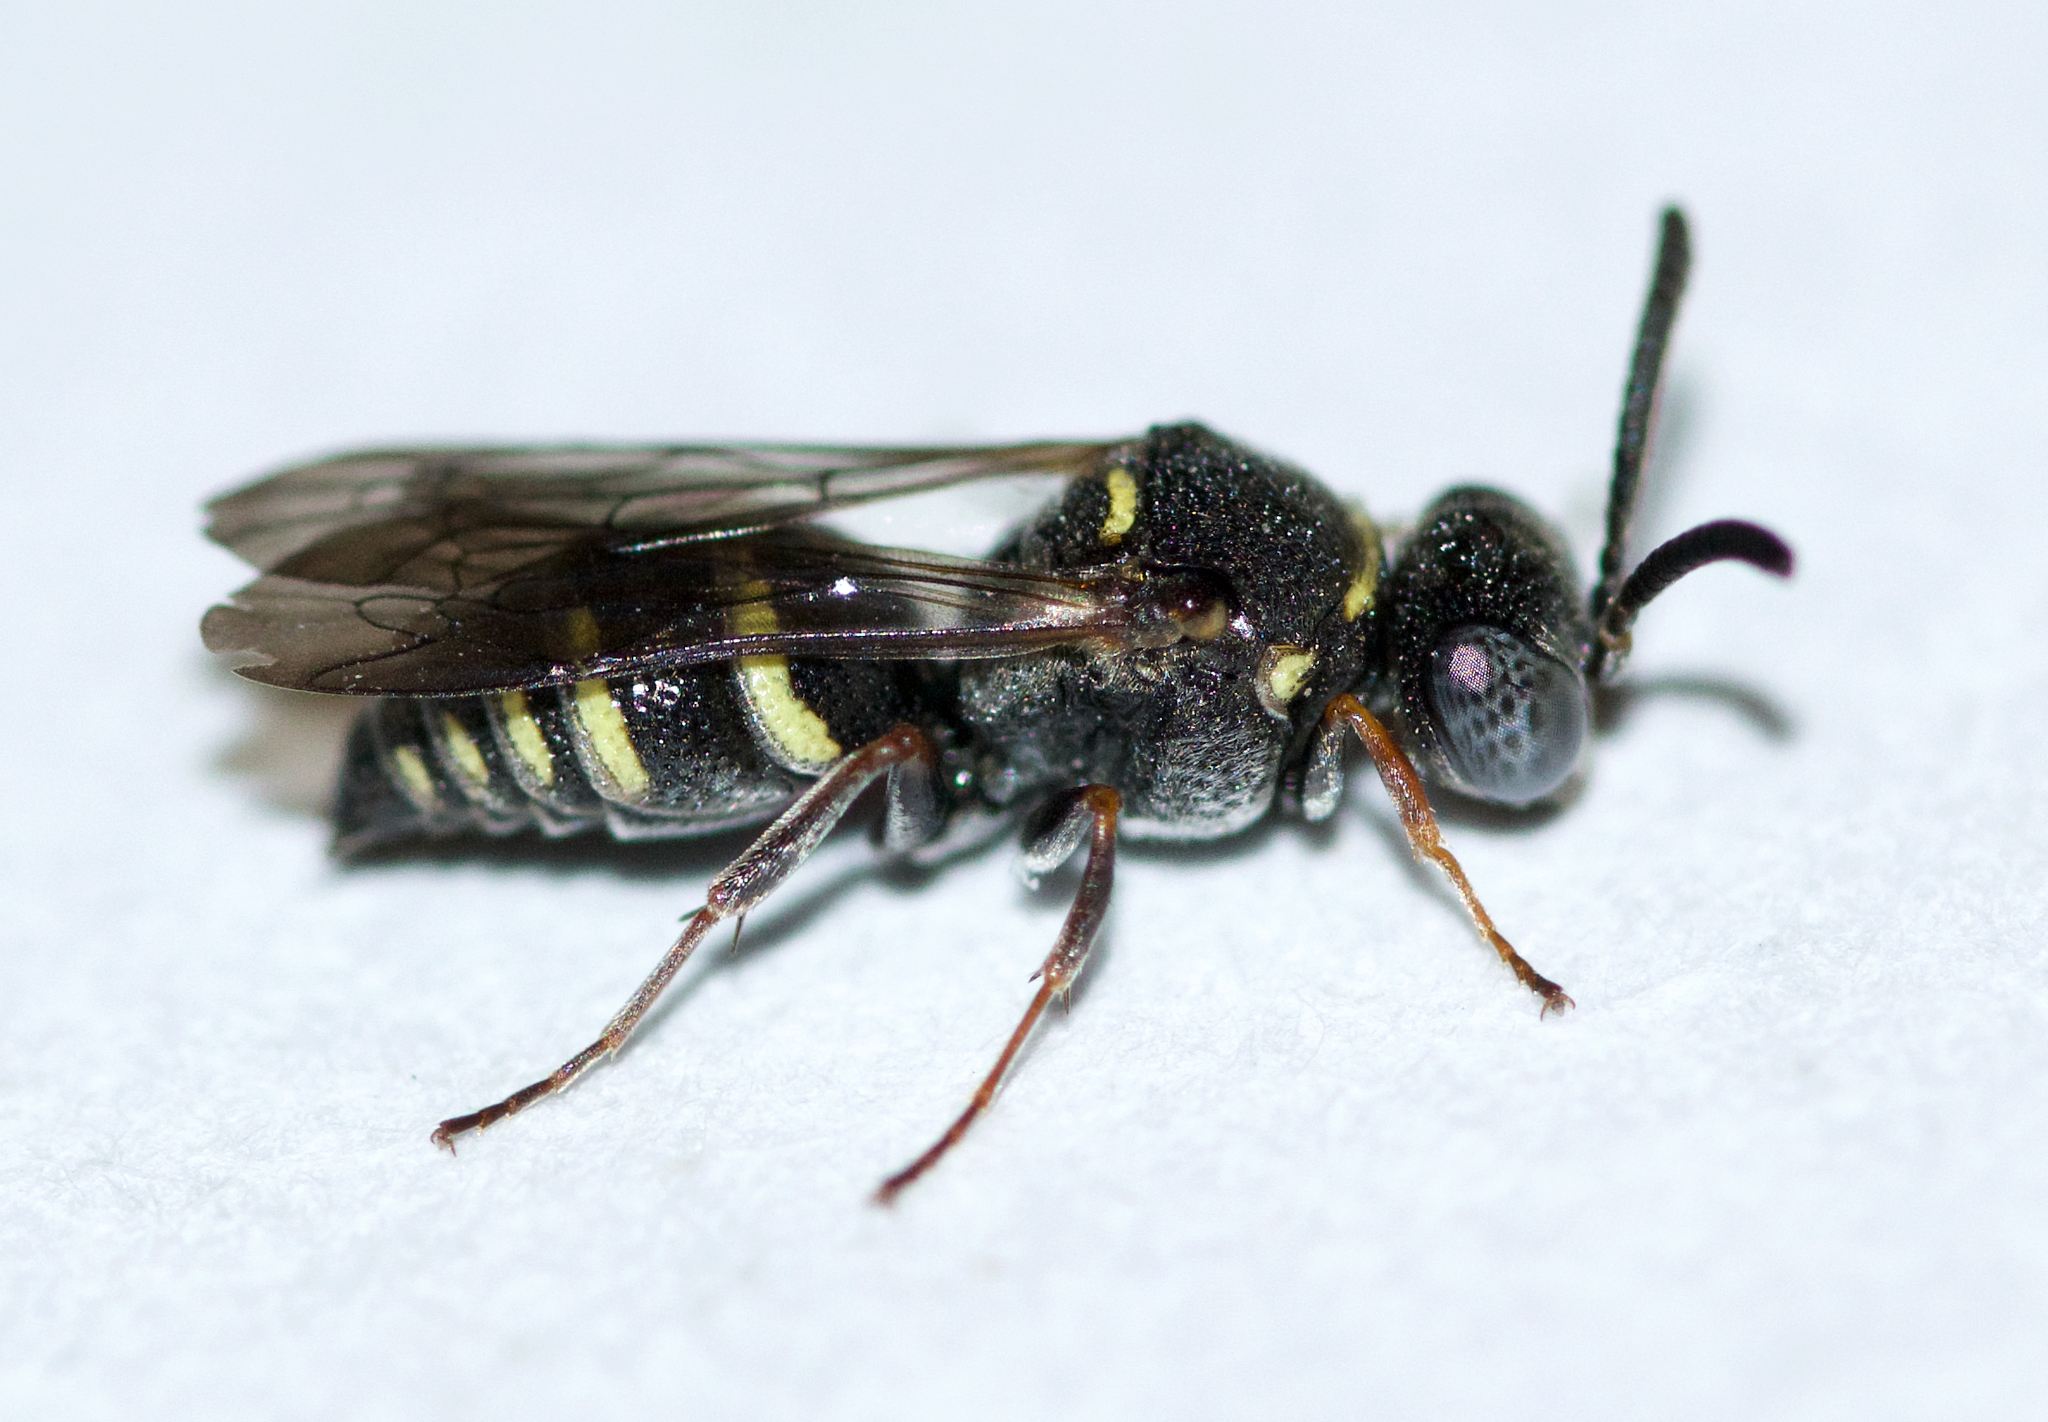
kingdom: Animalia
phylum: Arthropoda
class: Insecta
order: Hymenoptera
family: Crabronidae
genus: Epinysson
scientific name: Epinysson tramosericus
